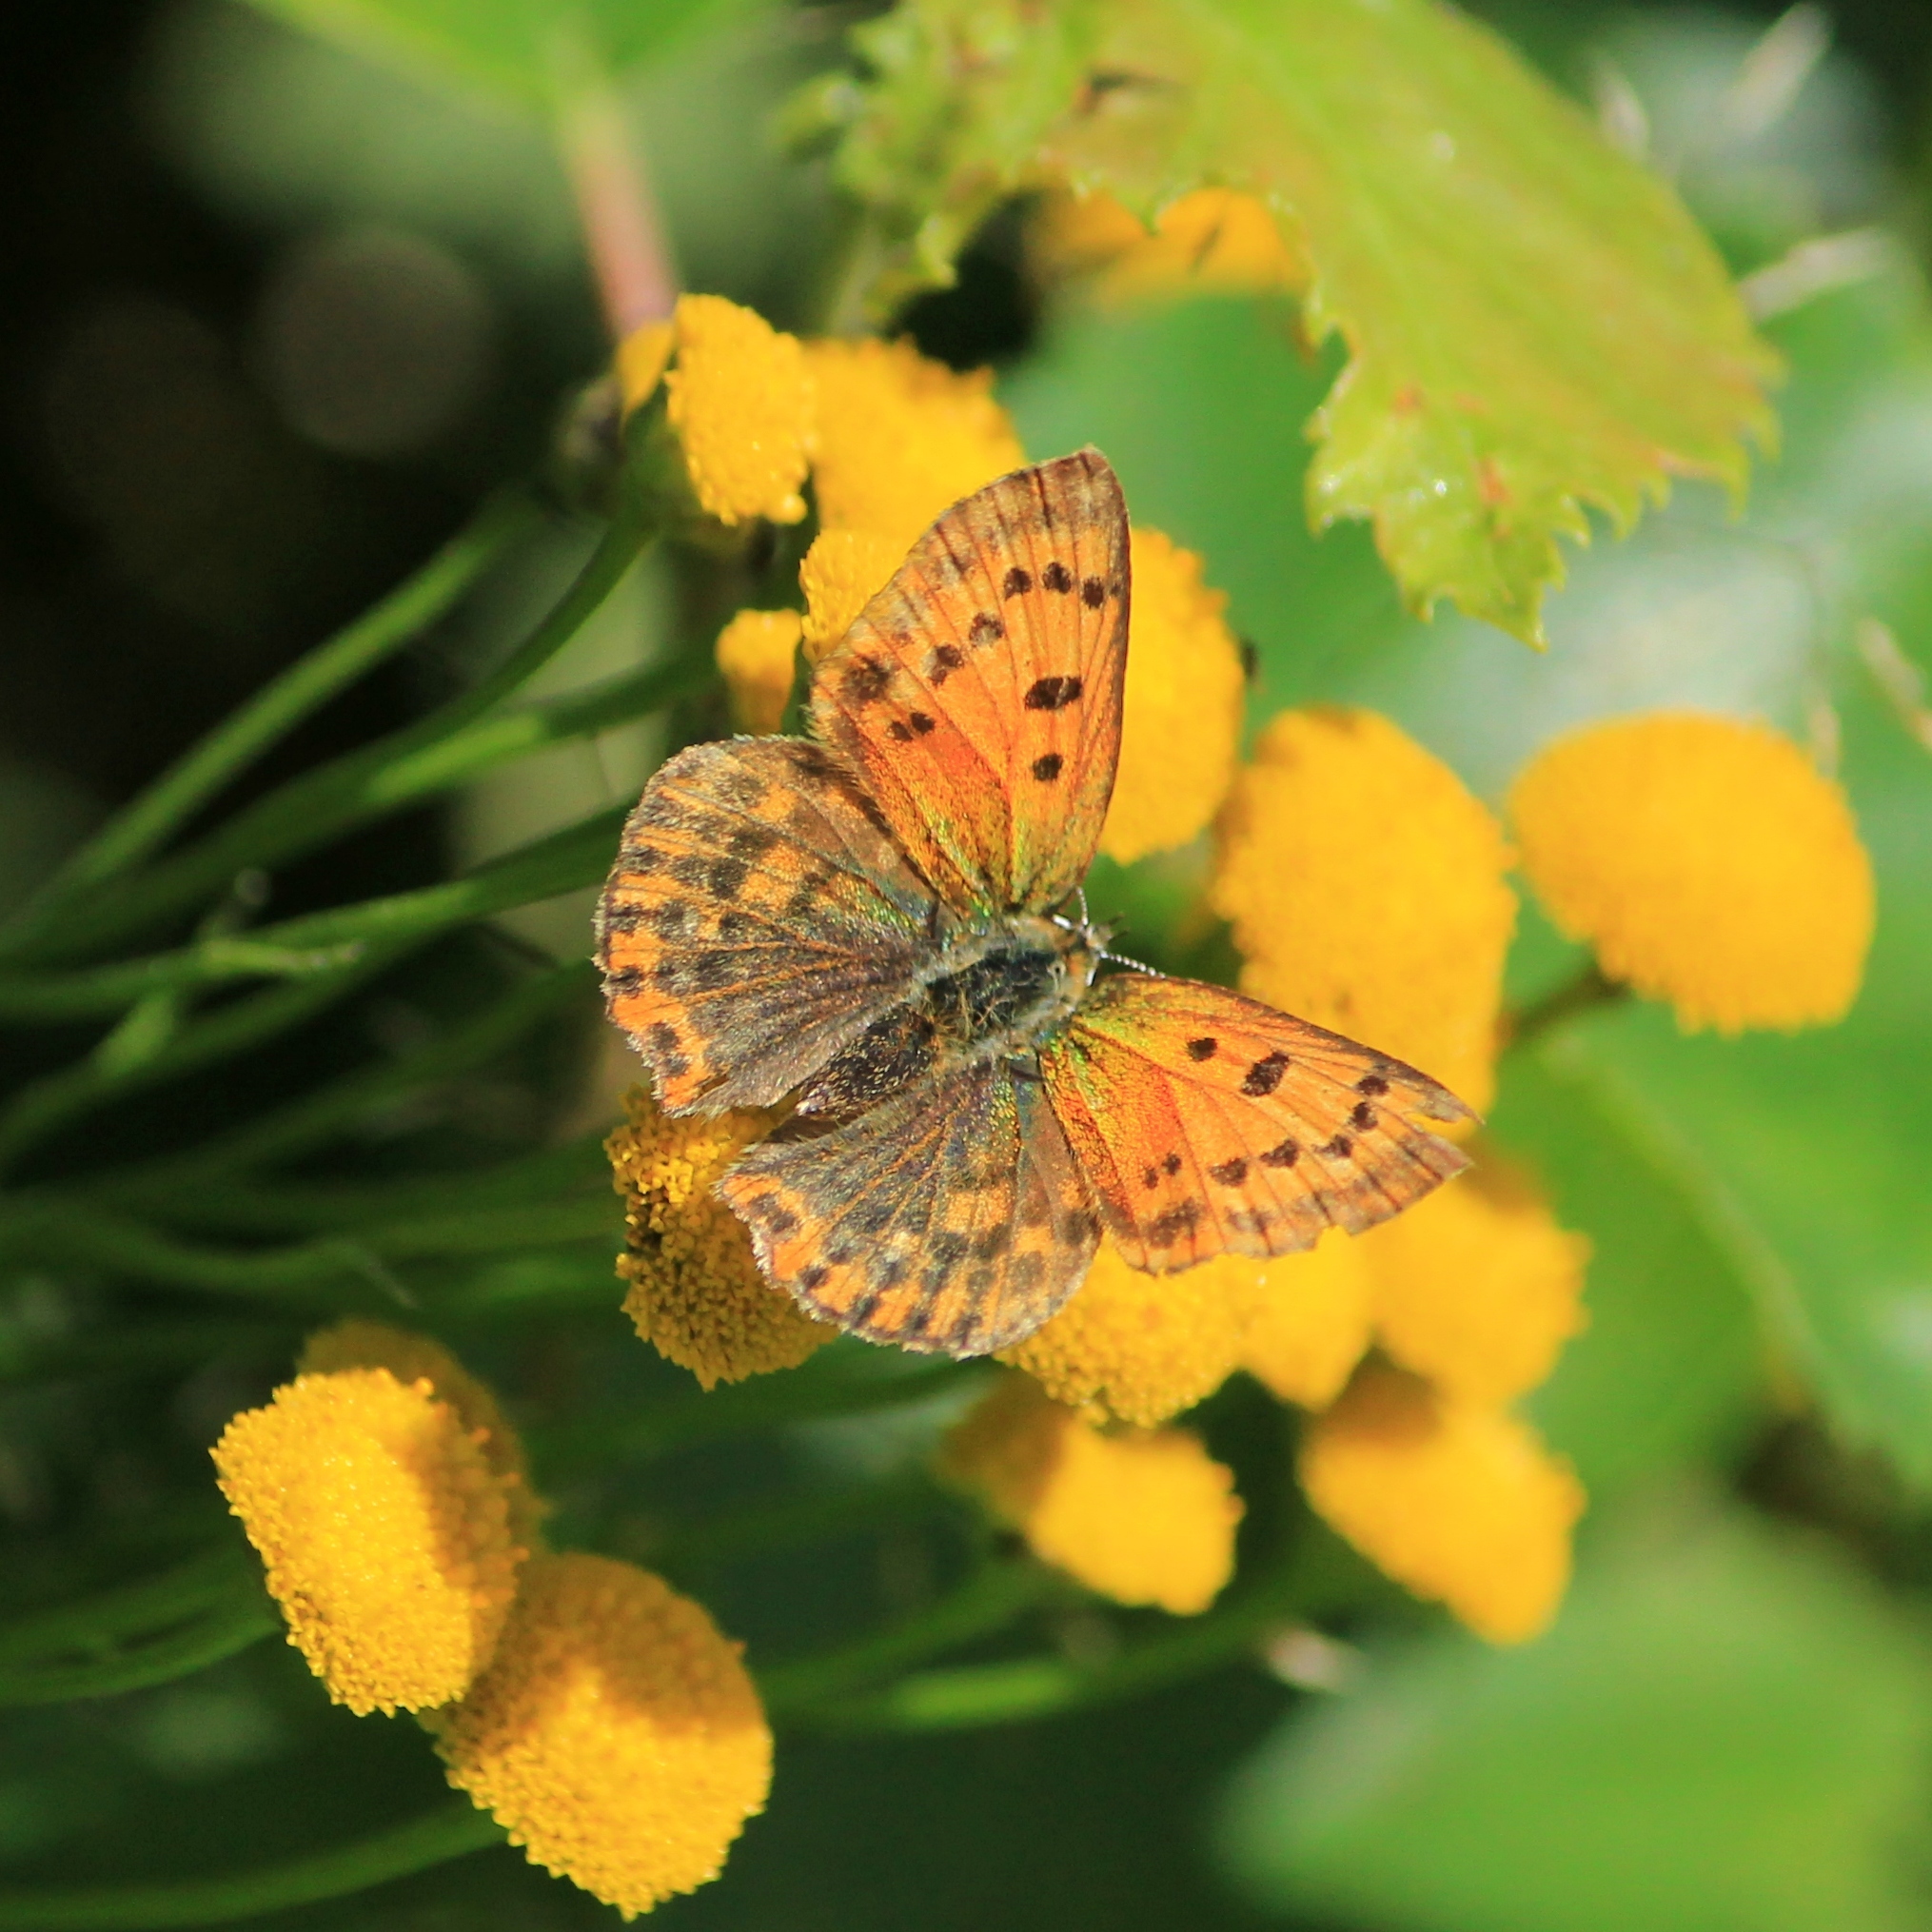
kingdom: Animalia
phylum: Arthropoda
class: Insecta
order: Lepidoptera
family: Lycaenidae
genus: Lycaena
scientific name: Lycaena virgaureae
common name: Scarce copper
